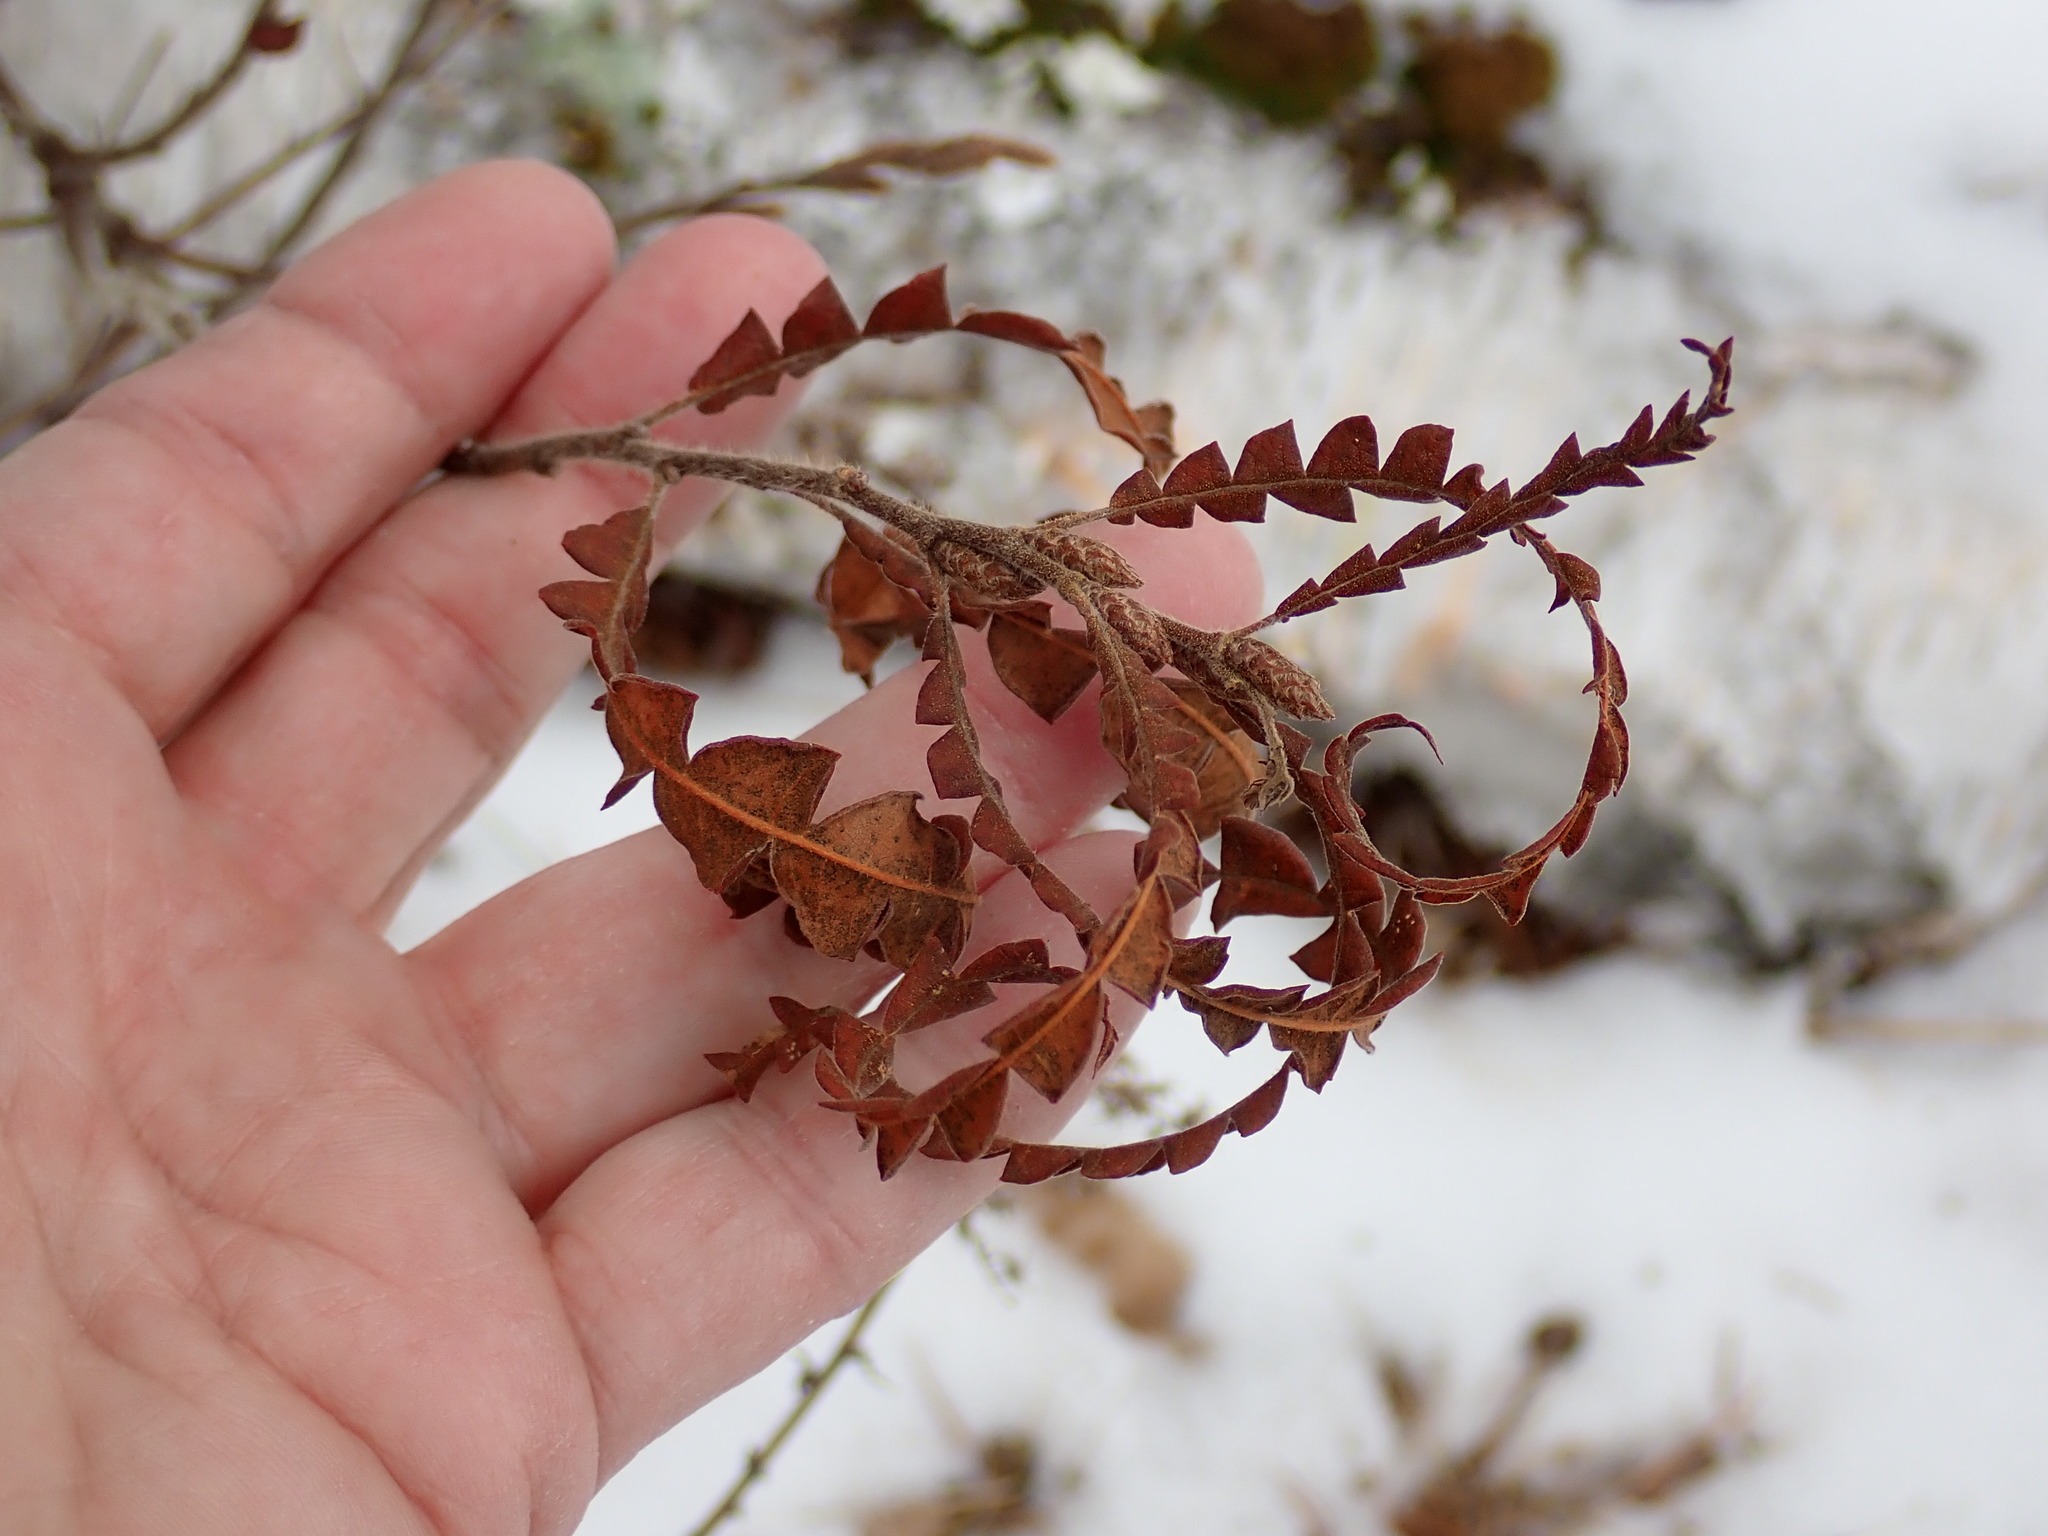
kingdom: Plantae
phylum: Tracheophyta
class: Magnoliopsida
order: Fagales
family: Myricaceae
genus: Comptonia
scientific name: Comptonia peregrina
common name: Sweet-fern
